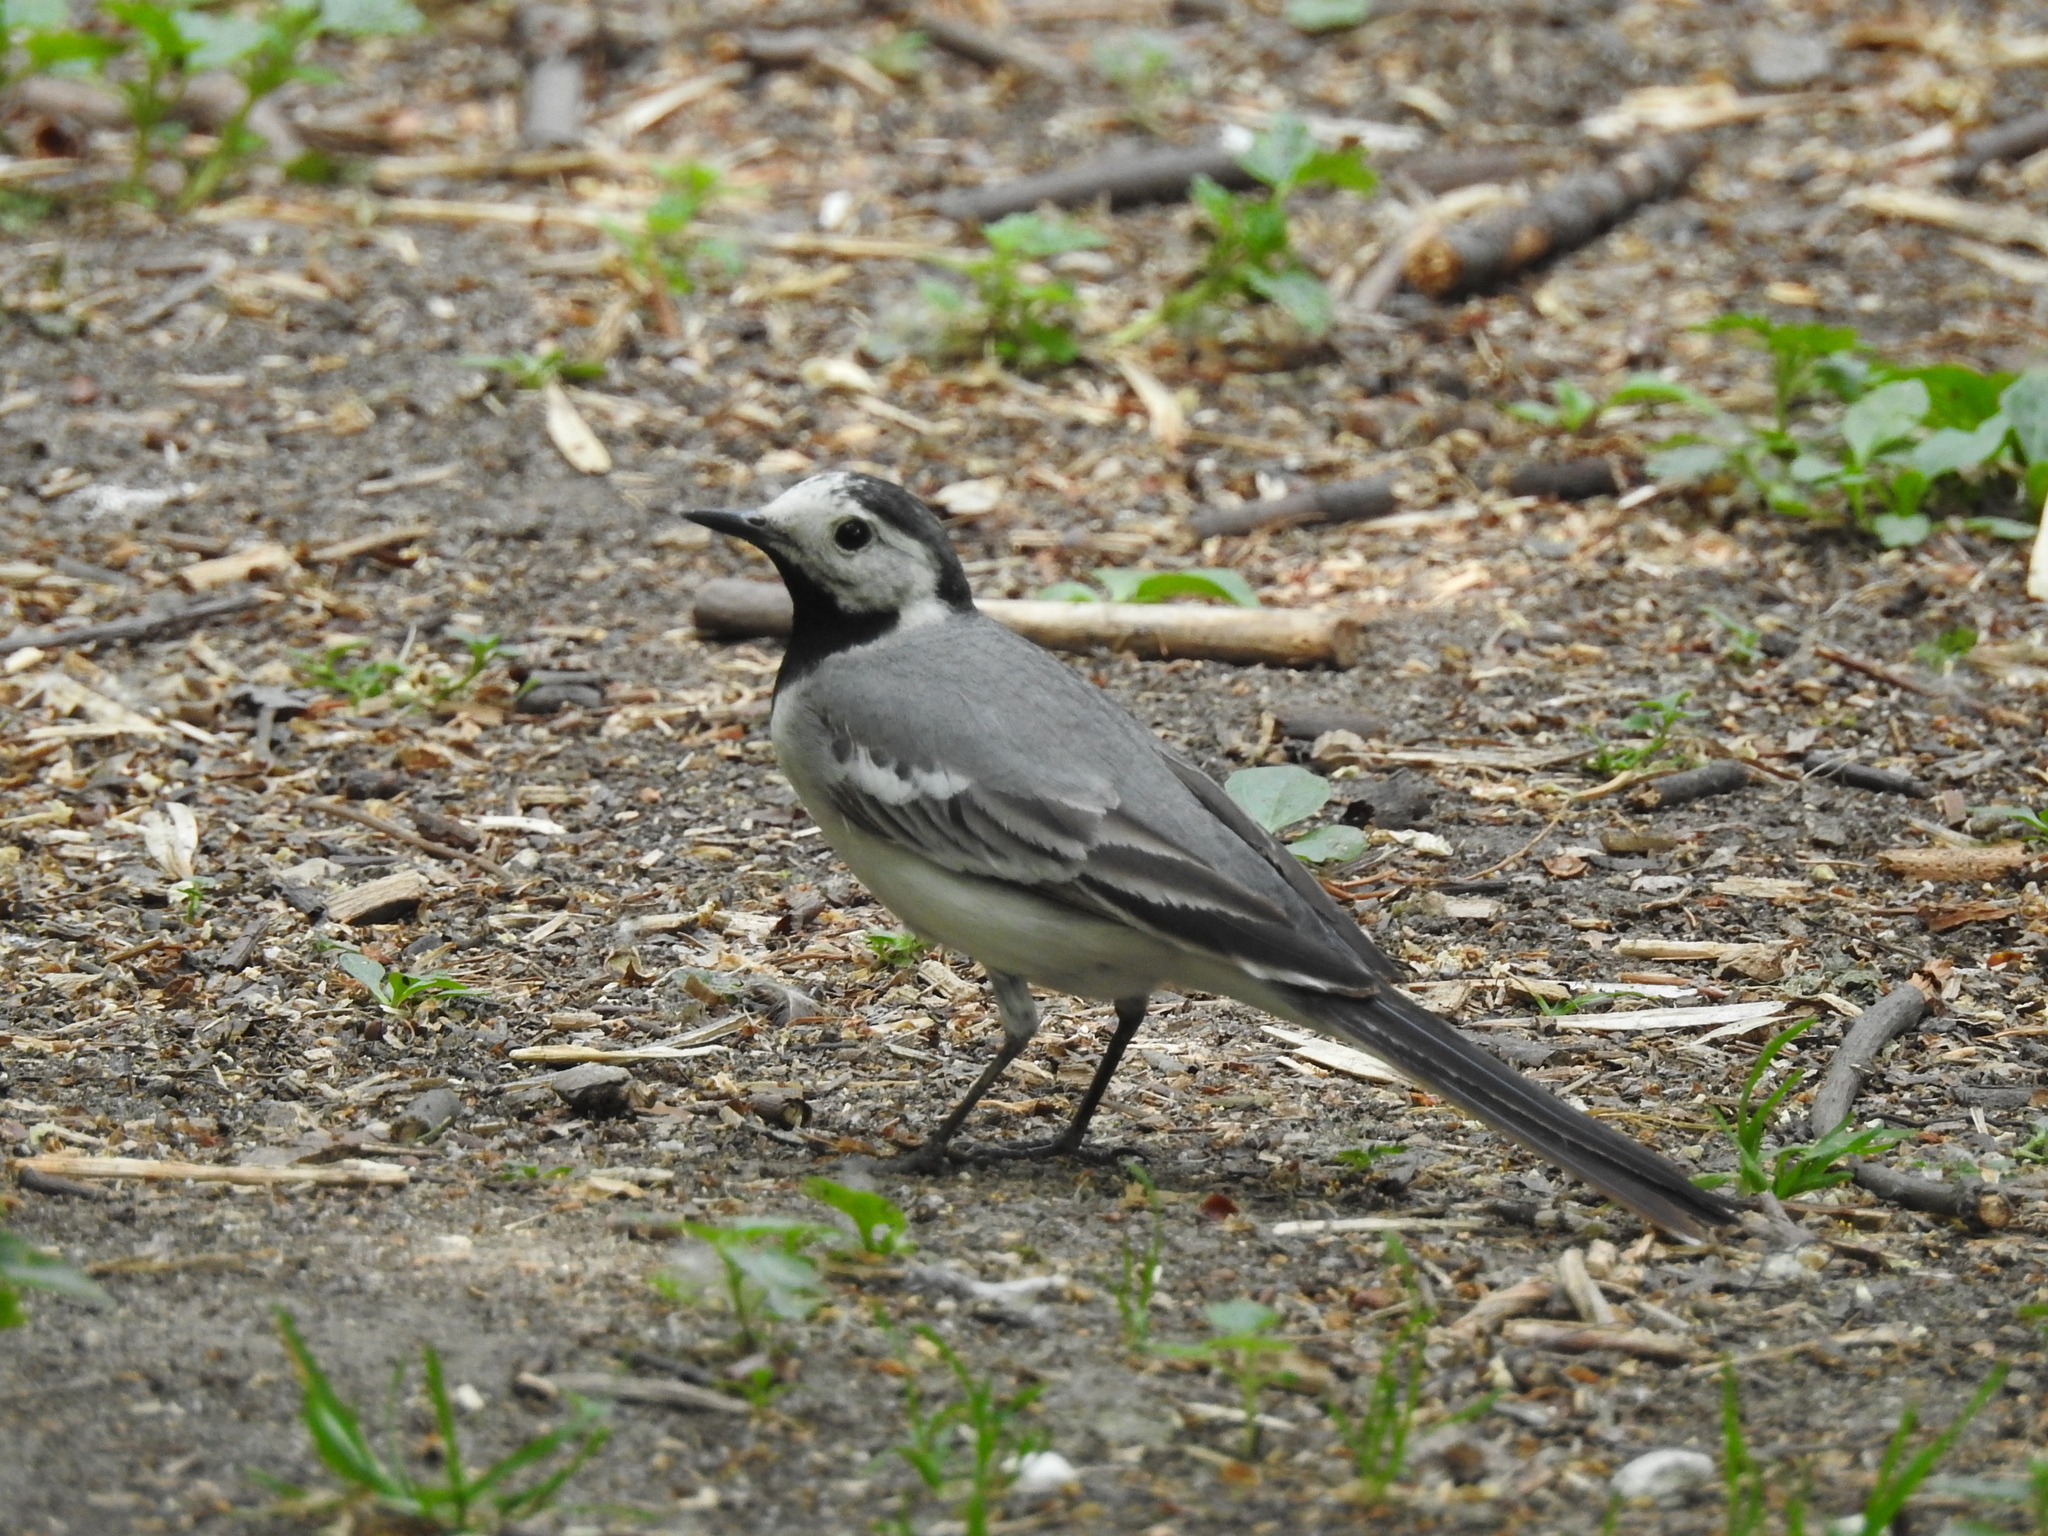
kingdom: Animalia
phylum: Chordata
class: Aves
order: Passeriformes
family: Motacillidae
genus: Motacilla
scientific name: Motacilla alba
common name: White wagtail
